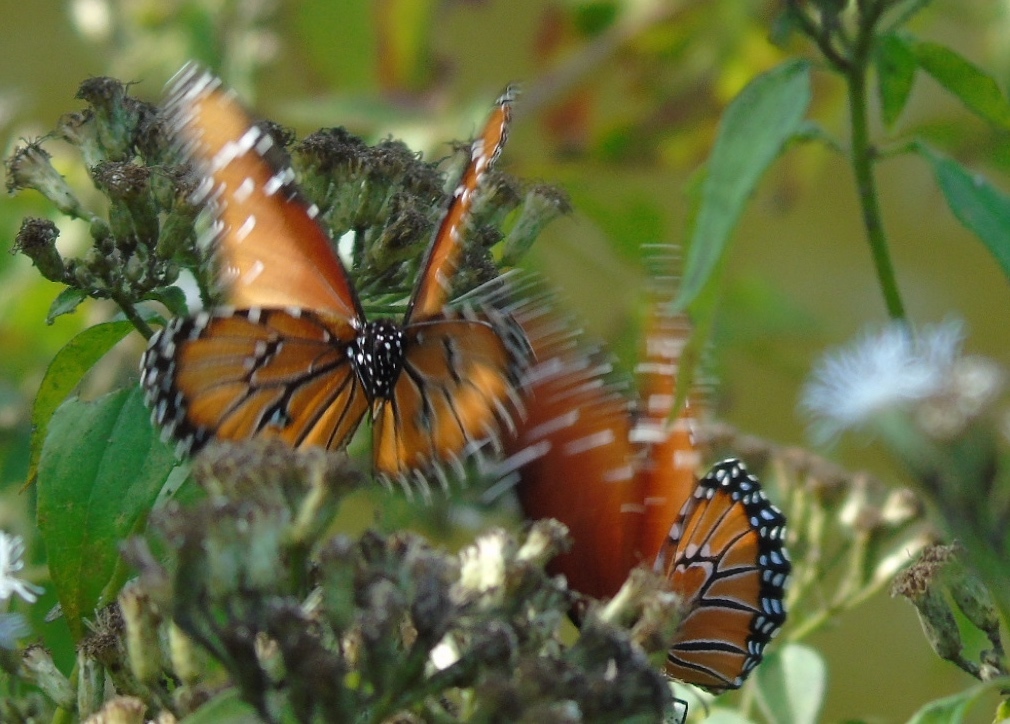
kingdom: Animalia
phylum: Arthropoda
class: Insecta
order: Lepidoptera
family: Nymphalidae
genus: Danaus
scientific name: Danaus gilippus
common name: Queen
